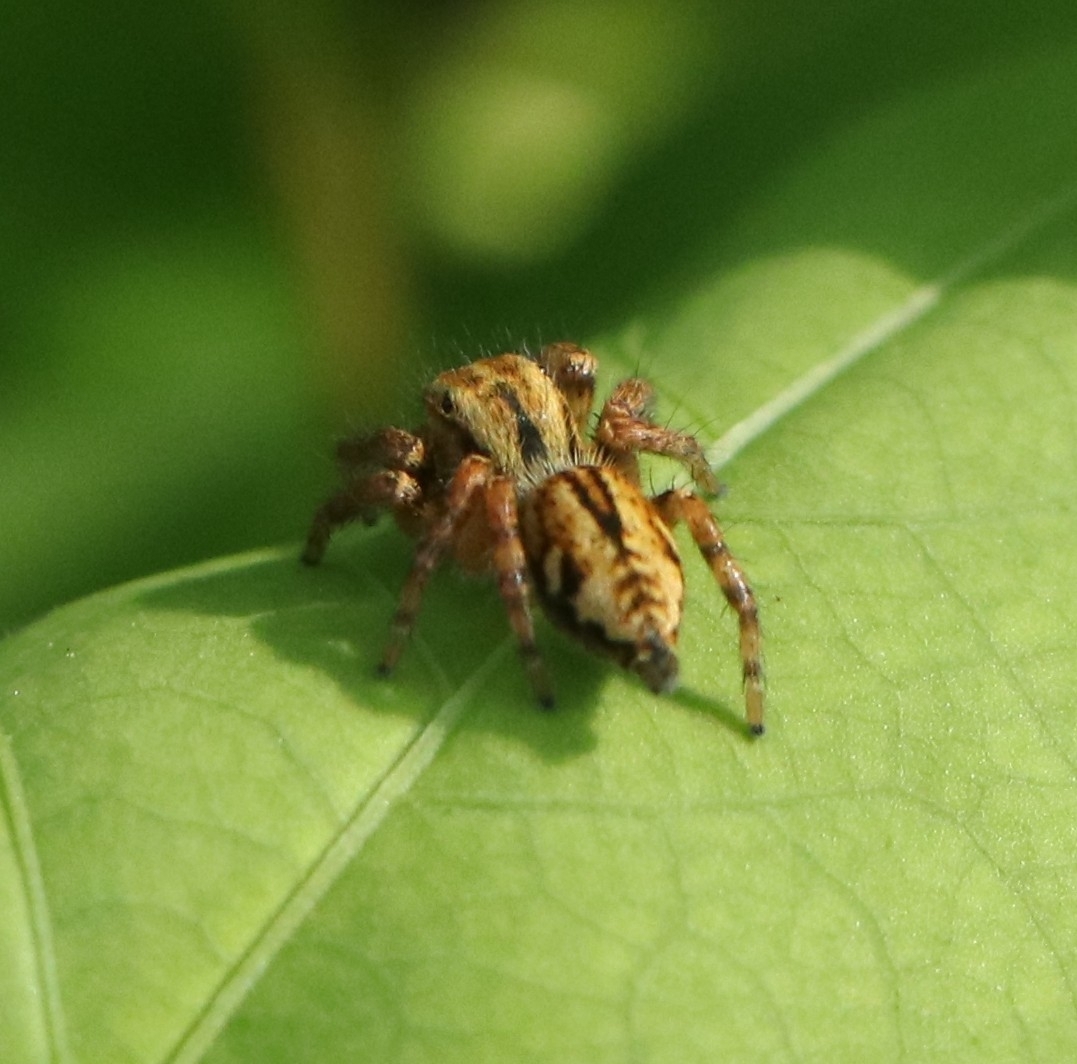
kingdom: Animalia
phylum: Arthropoda
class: Arachnida
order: Araneae
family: Salticidae
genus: Carrhotus
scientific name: Carrhotus viduus
